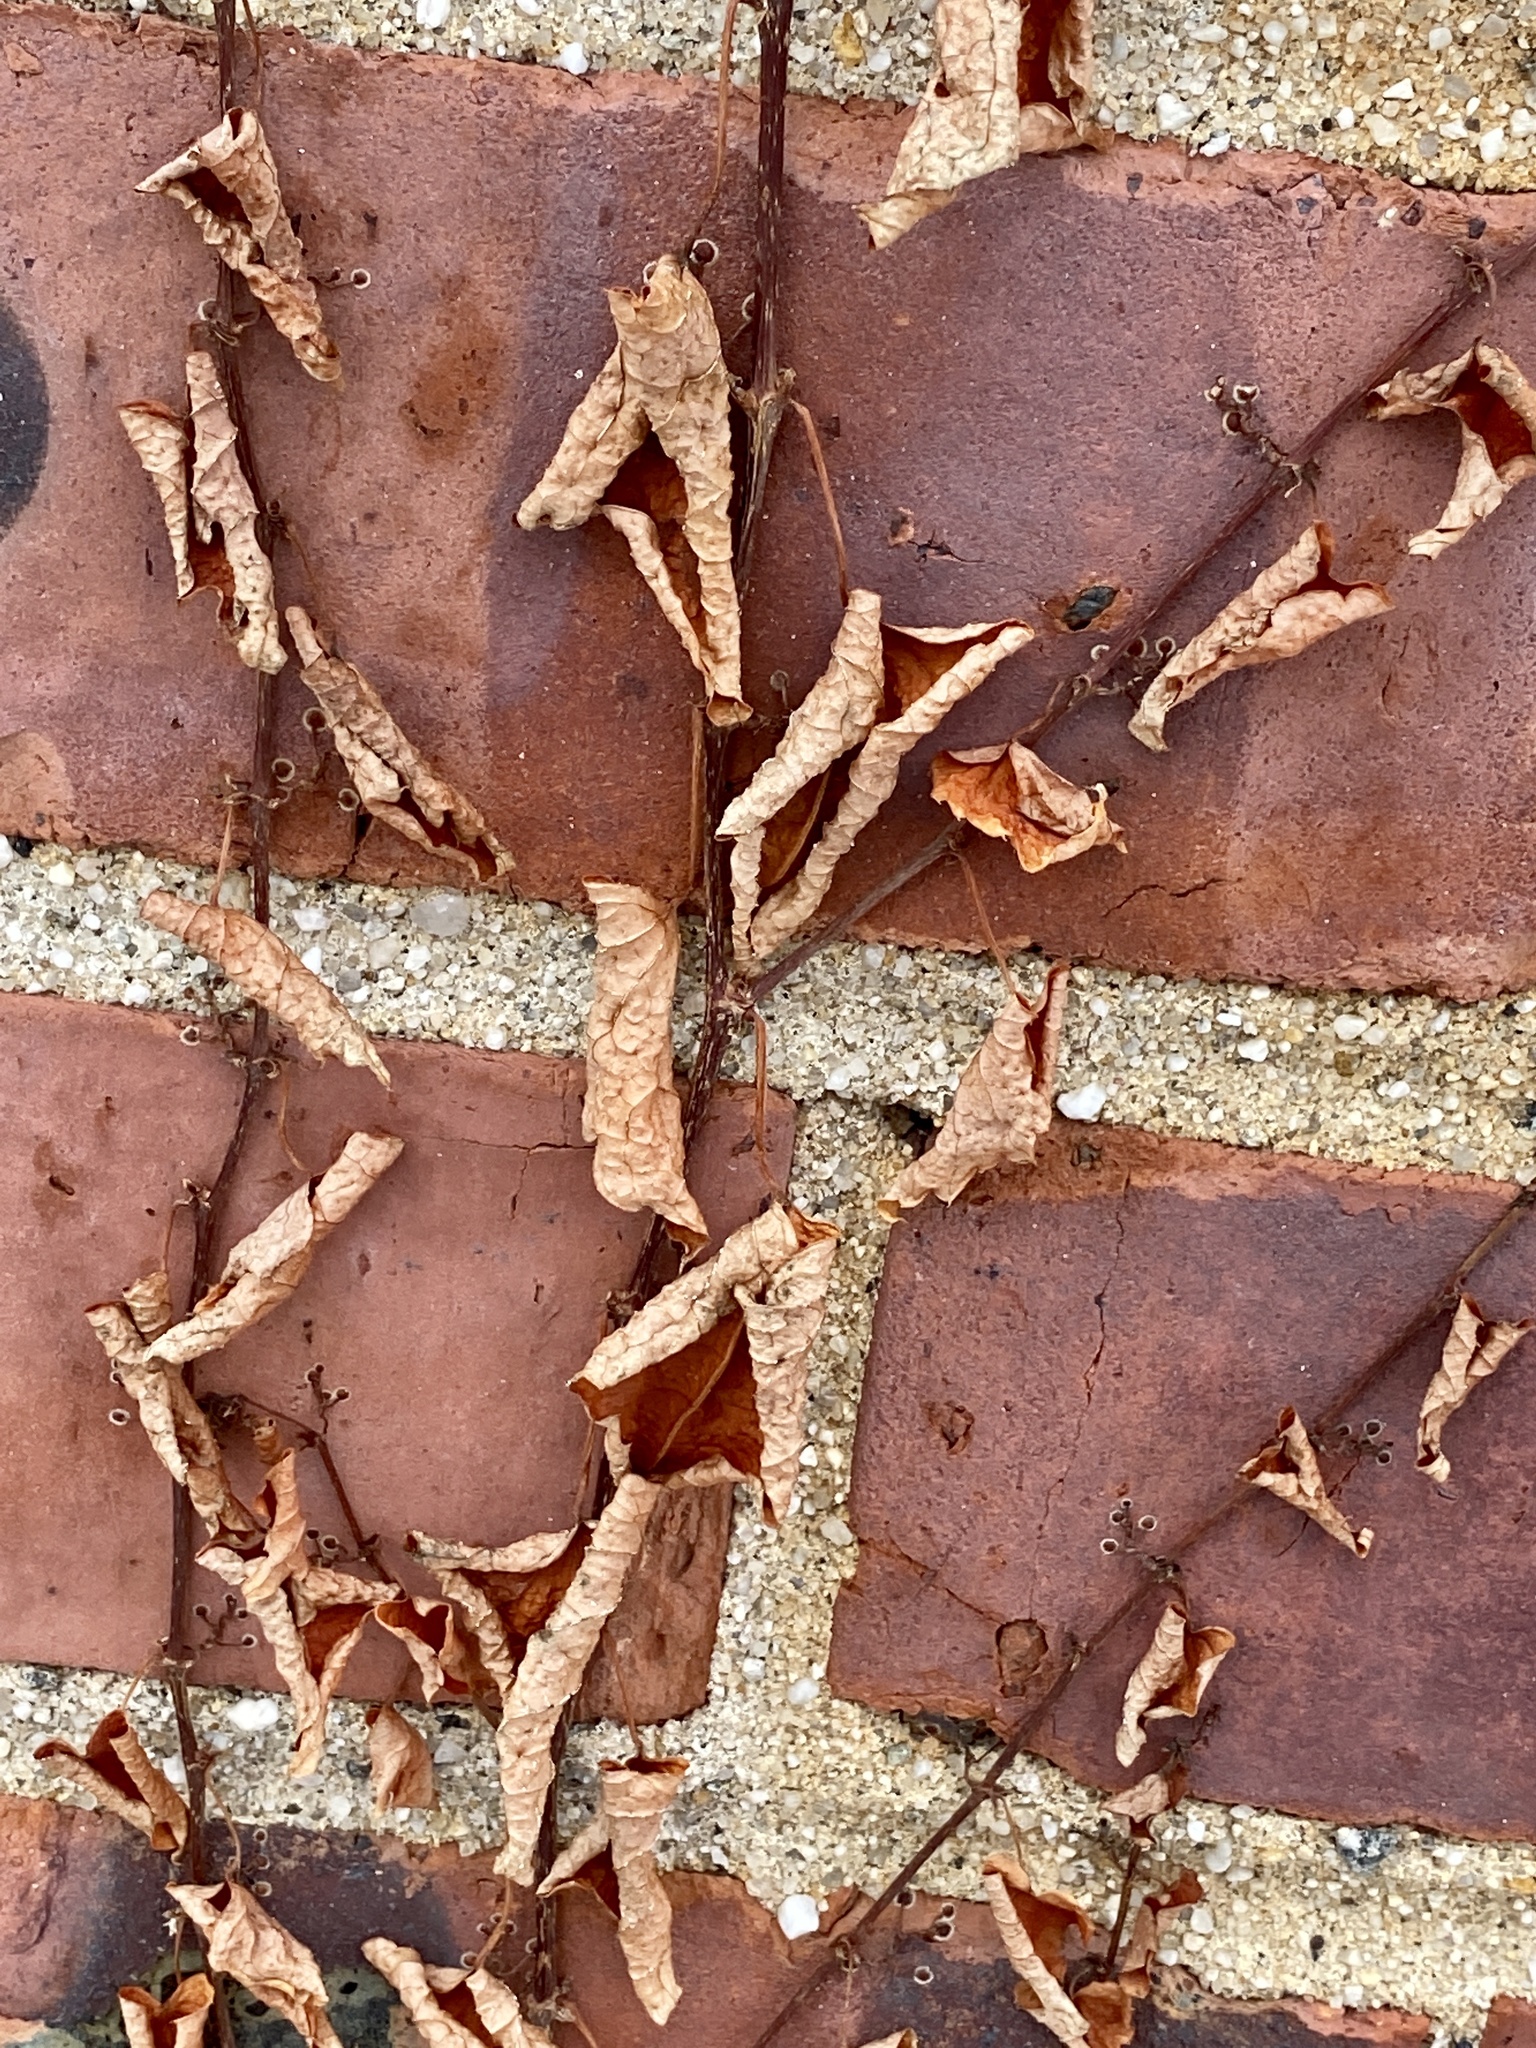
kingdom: Plantae
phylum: Tracheophyta
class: Magnoliopsida
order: Vitales
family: Vitaceae
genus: Parthenocissus
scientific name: Parthenocissus tricuspidata
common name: Boston ivy
